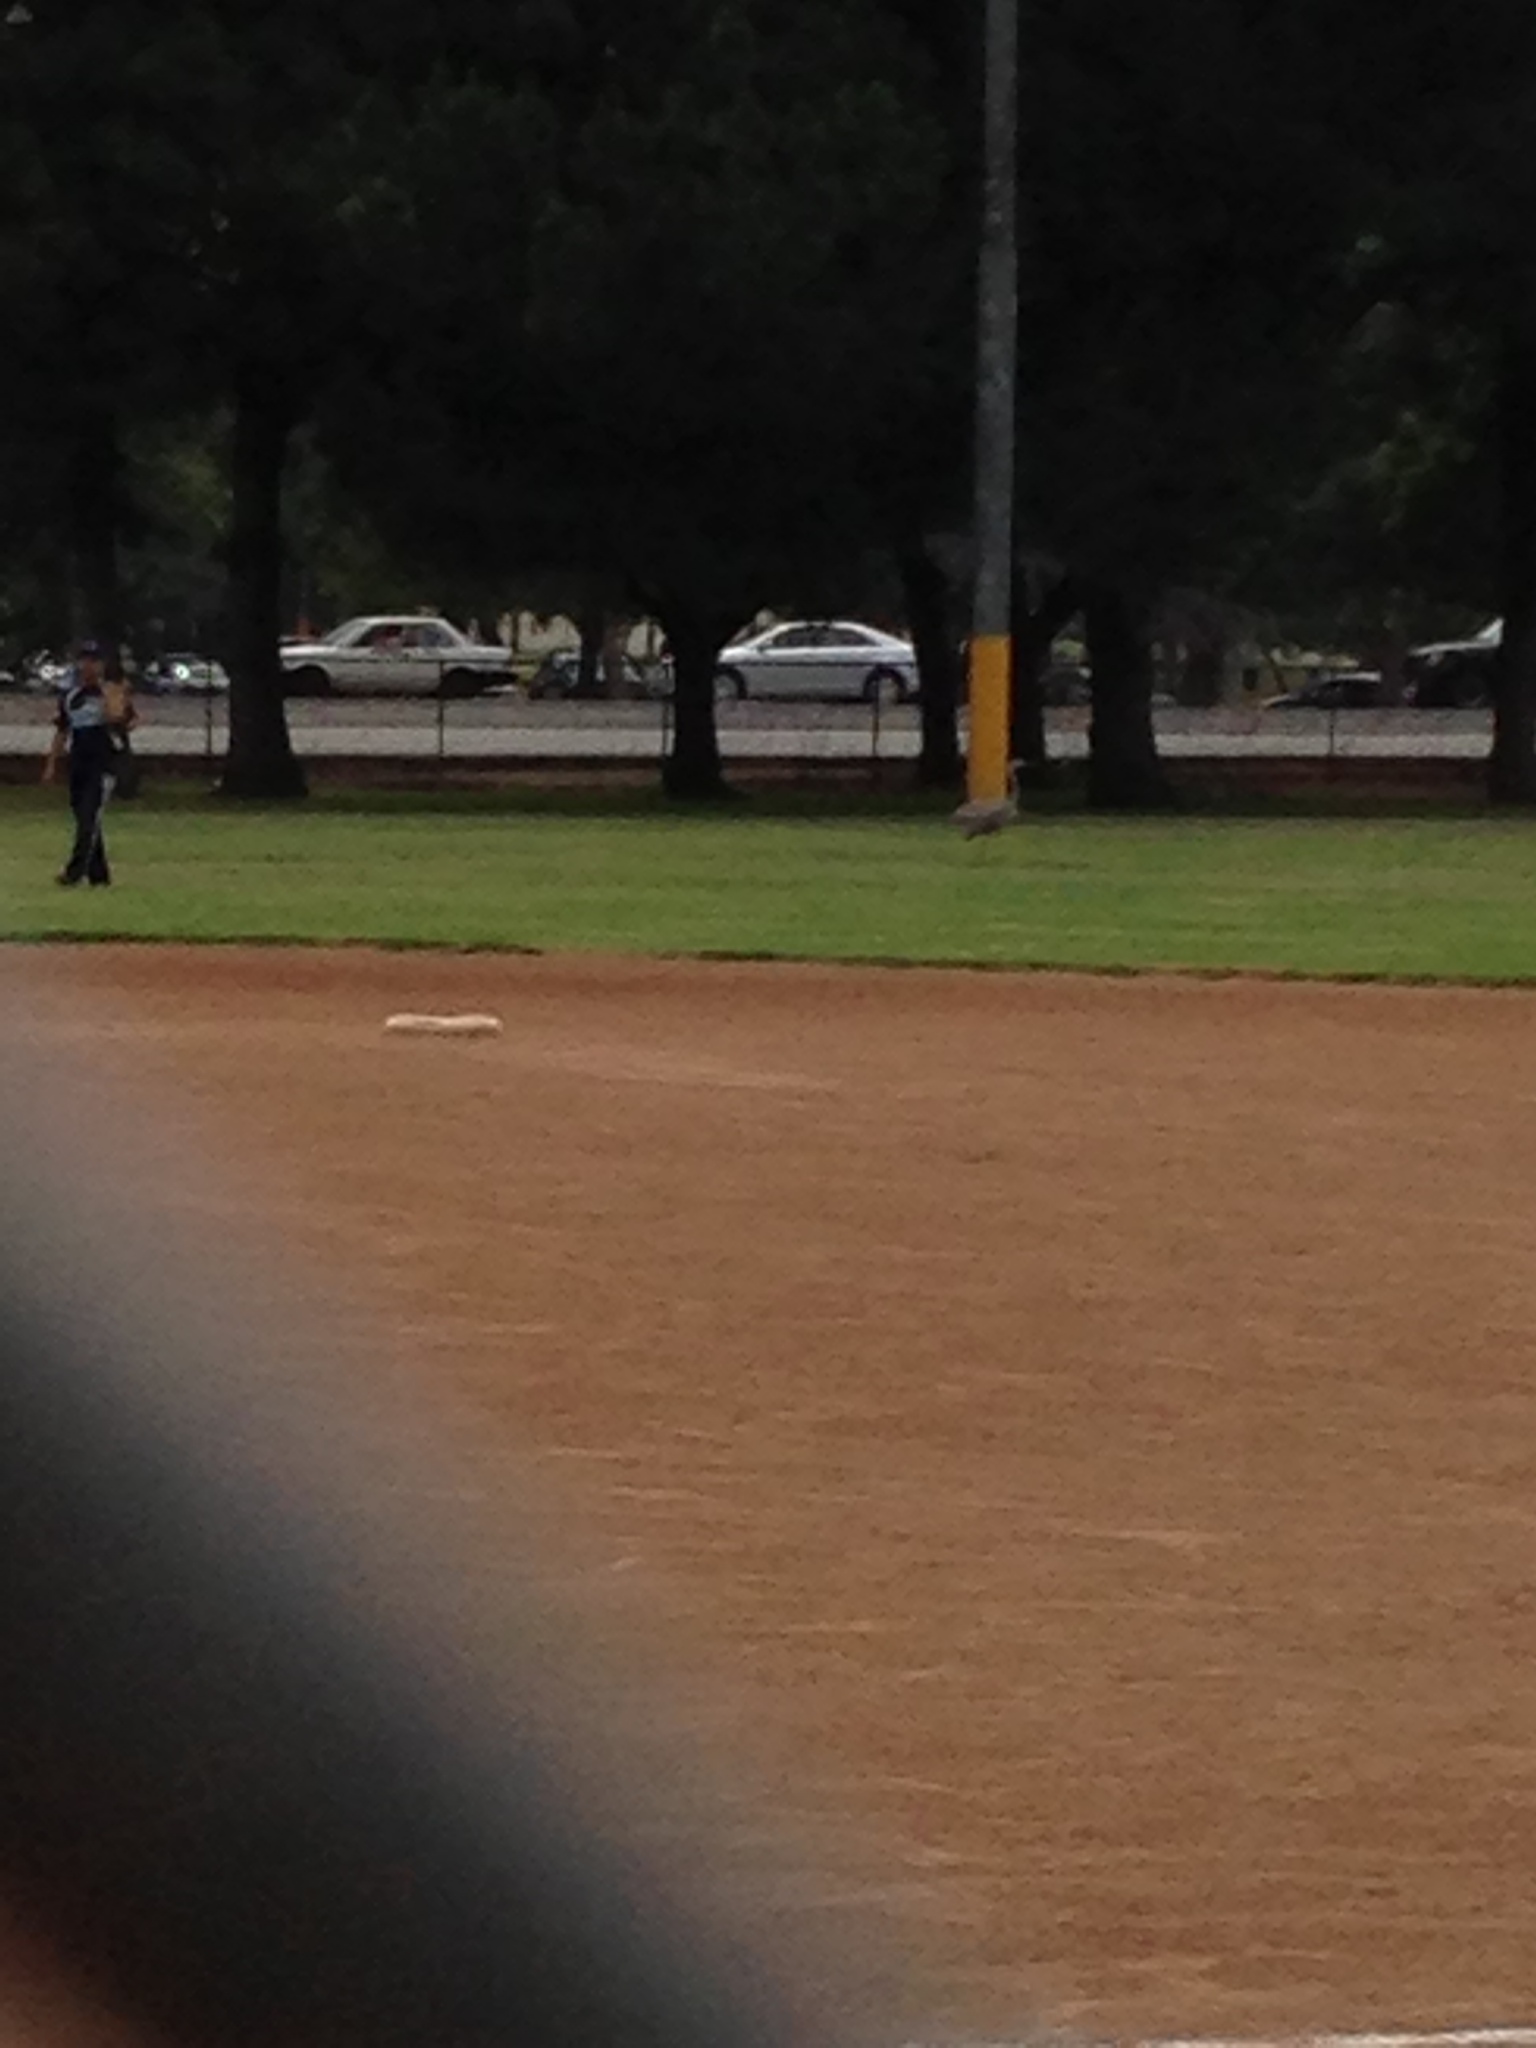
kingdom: Animalia
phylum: Chordata
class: Aves
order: Pelecaniformes
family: Ardeidae
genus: Ardea
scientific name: Ardea herodias
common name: Great blue heron
